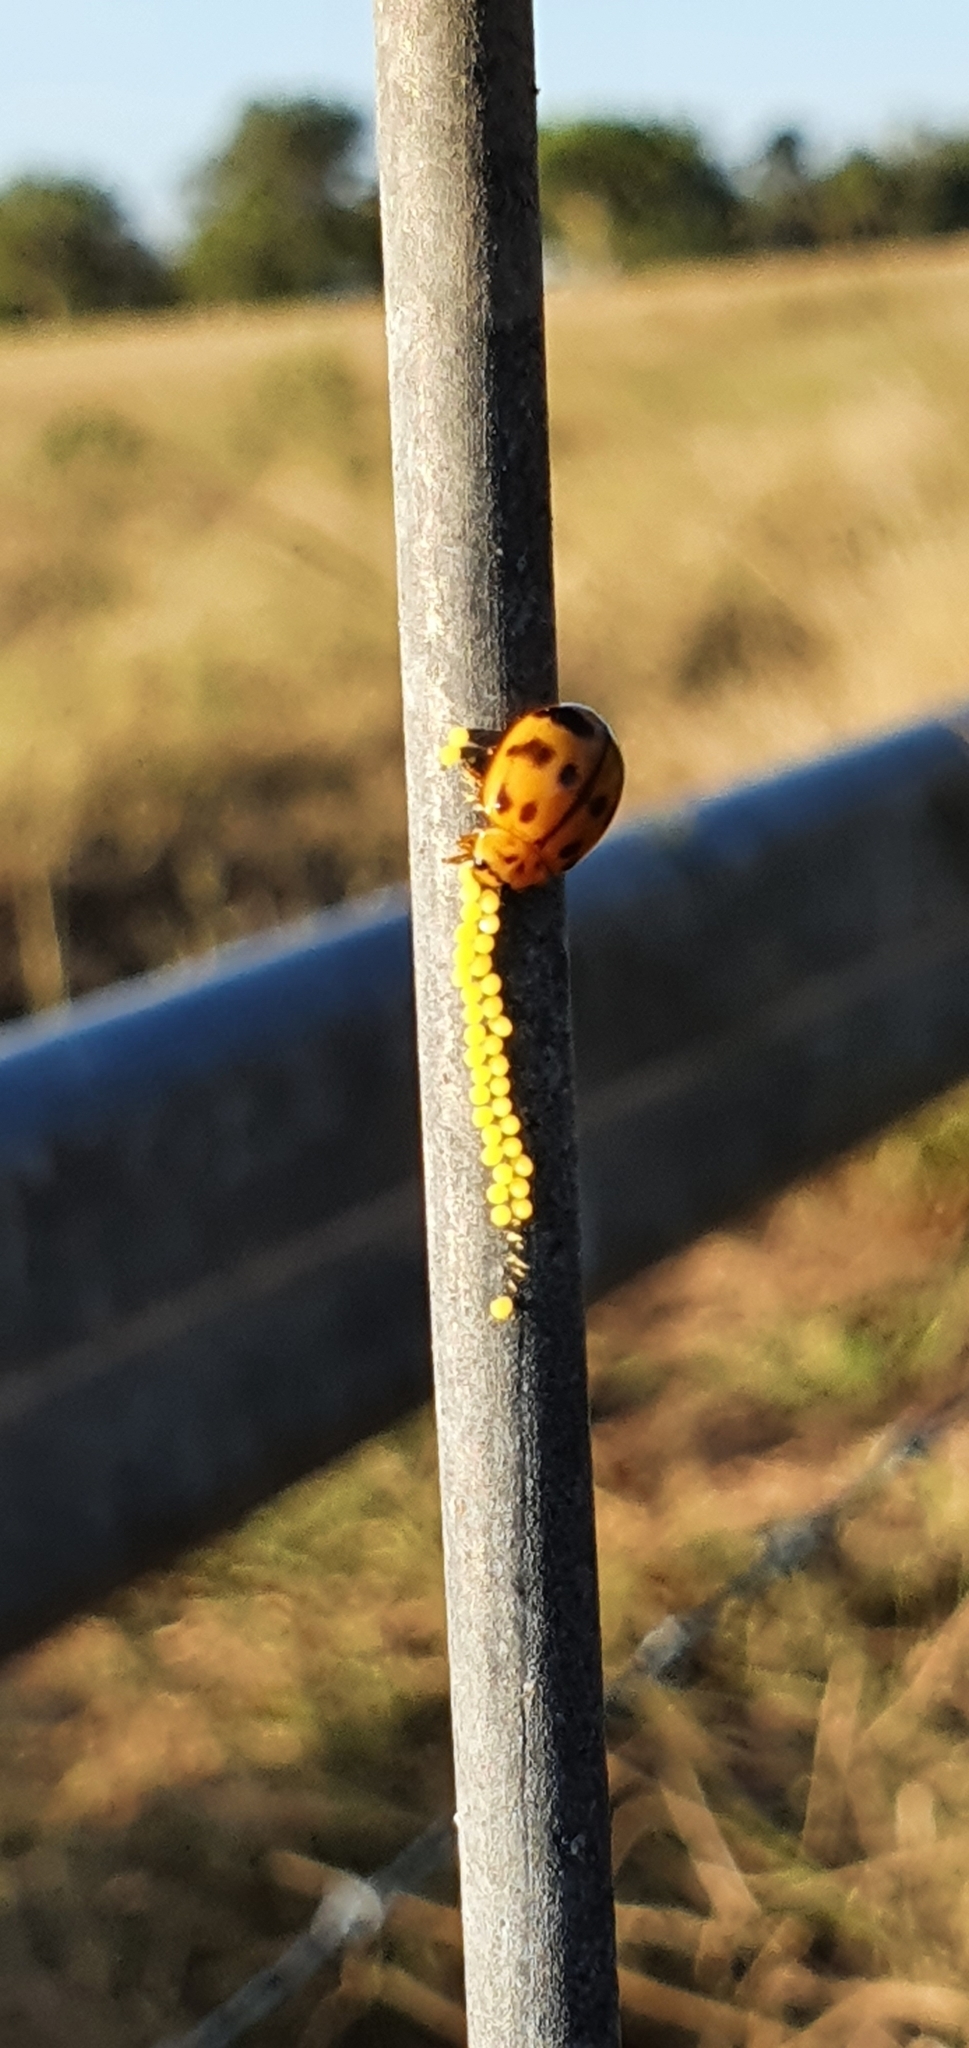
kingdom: Animalia
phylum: Arthropoda
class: Insecta
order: Coleoptera
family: Coccinellidae
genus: Harmonia
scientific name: Harmonia octomaculata
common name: Lady beetle
